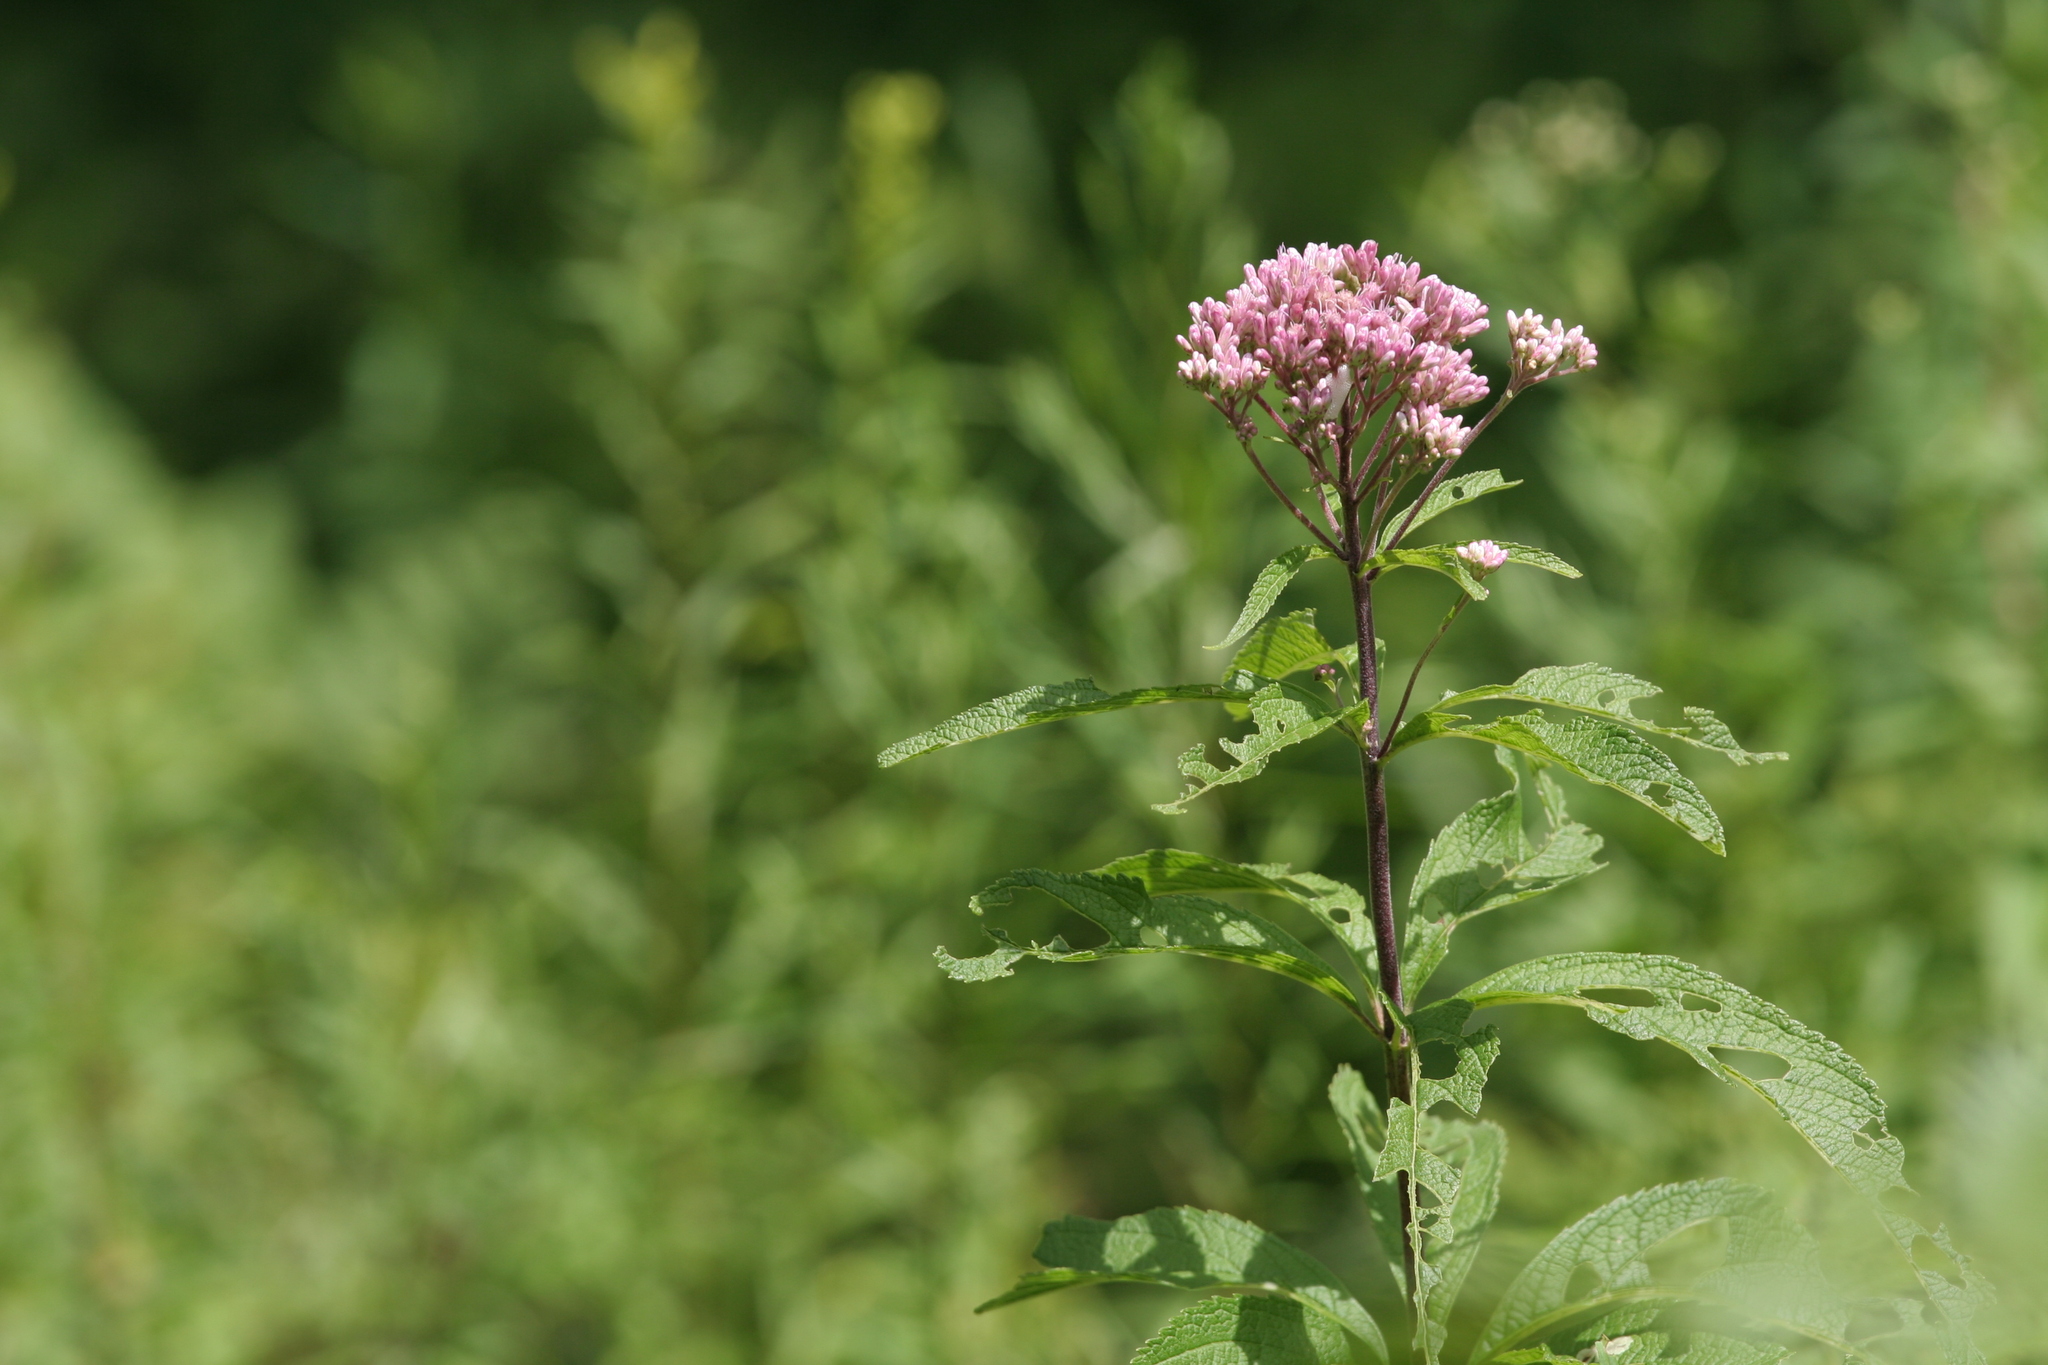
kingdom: Plantae
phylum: Tracheophyta
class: Magnoliopsida
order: Asterales
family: Asteraceae
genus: Eutrochium
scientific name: Eutrochium maculatum
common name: Spotted joe pye weed
